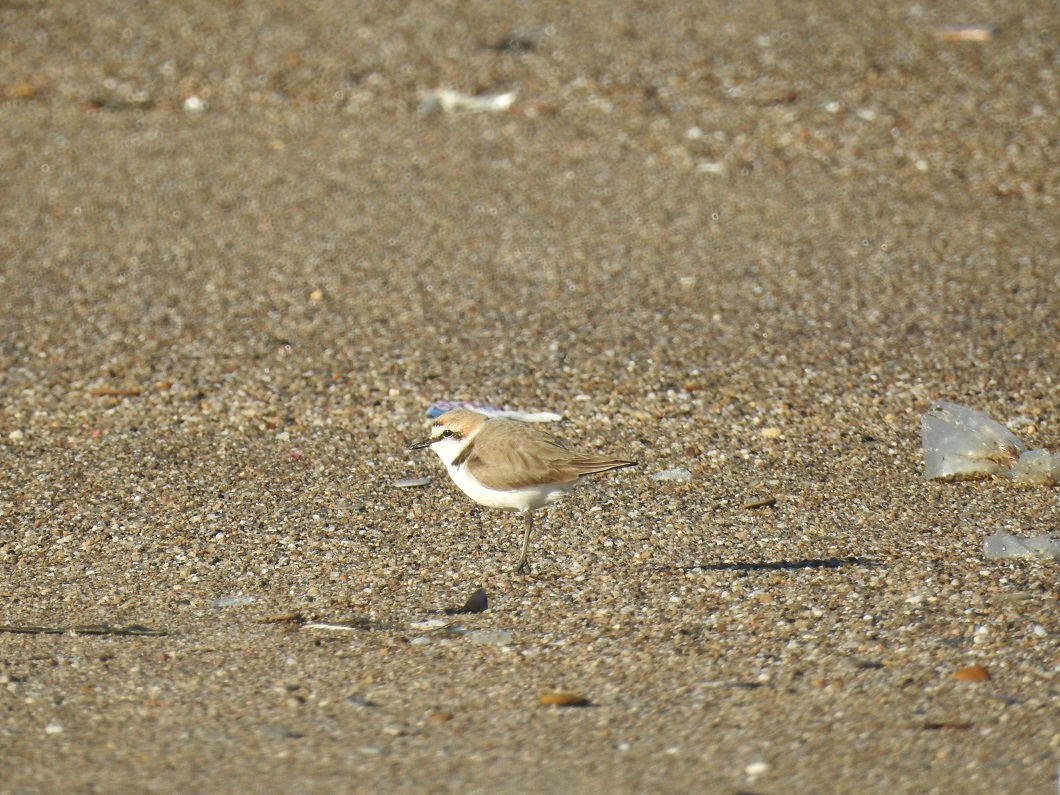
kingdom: Animalia
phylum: Chordata
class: Aves
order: Charadriiformes
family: Charadriidae
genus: Charadrius
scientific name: Charadrius alexandrinus
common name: Kentish plover
